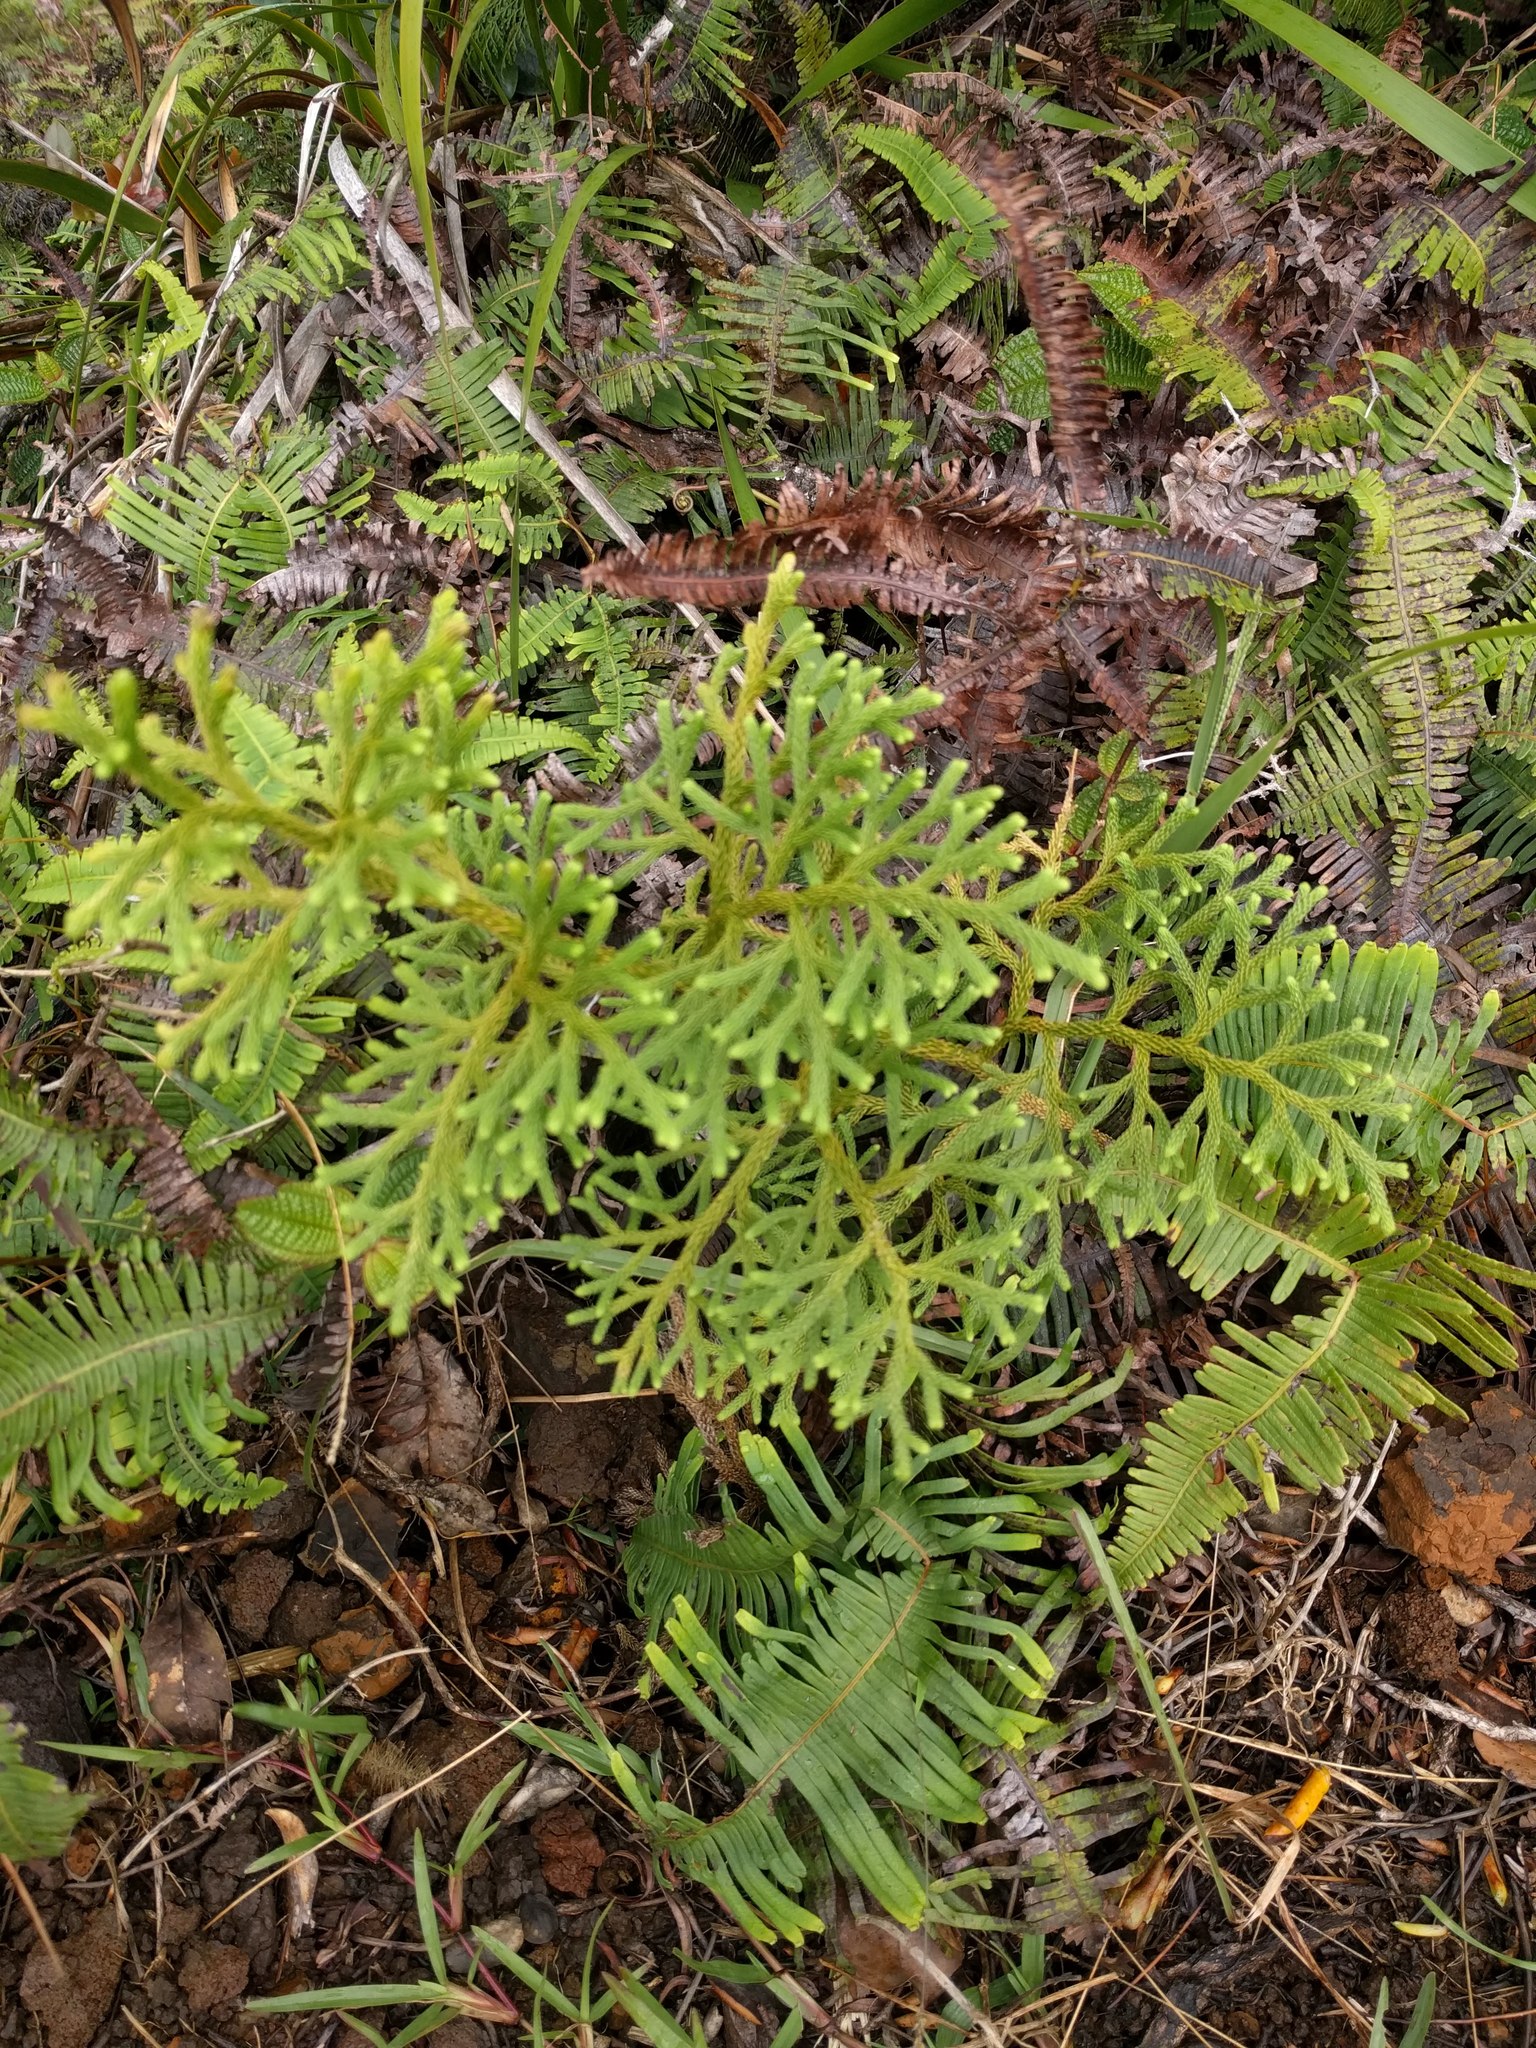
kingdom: Plantae
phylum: Tracheophyta
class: Lycopodiopsida
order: Lycopodiales
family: Lycopodiaceae
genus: Palhinhaea
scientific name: Palhinhaea cernua
